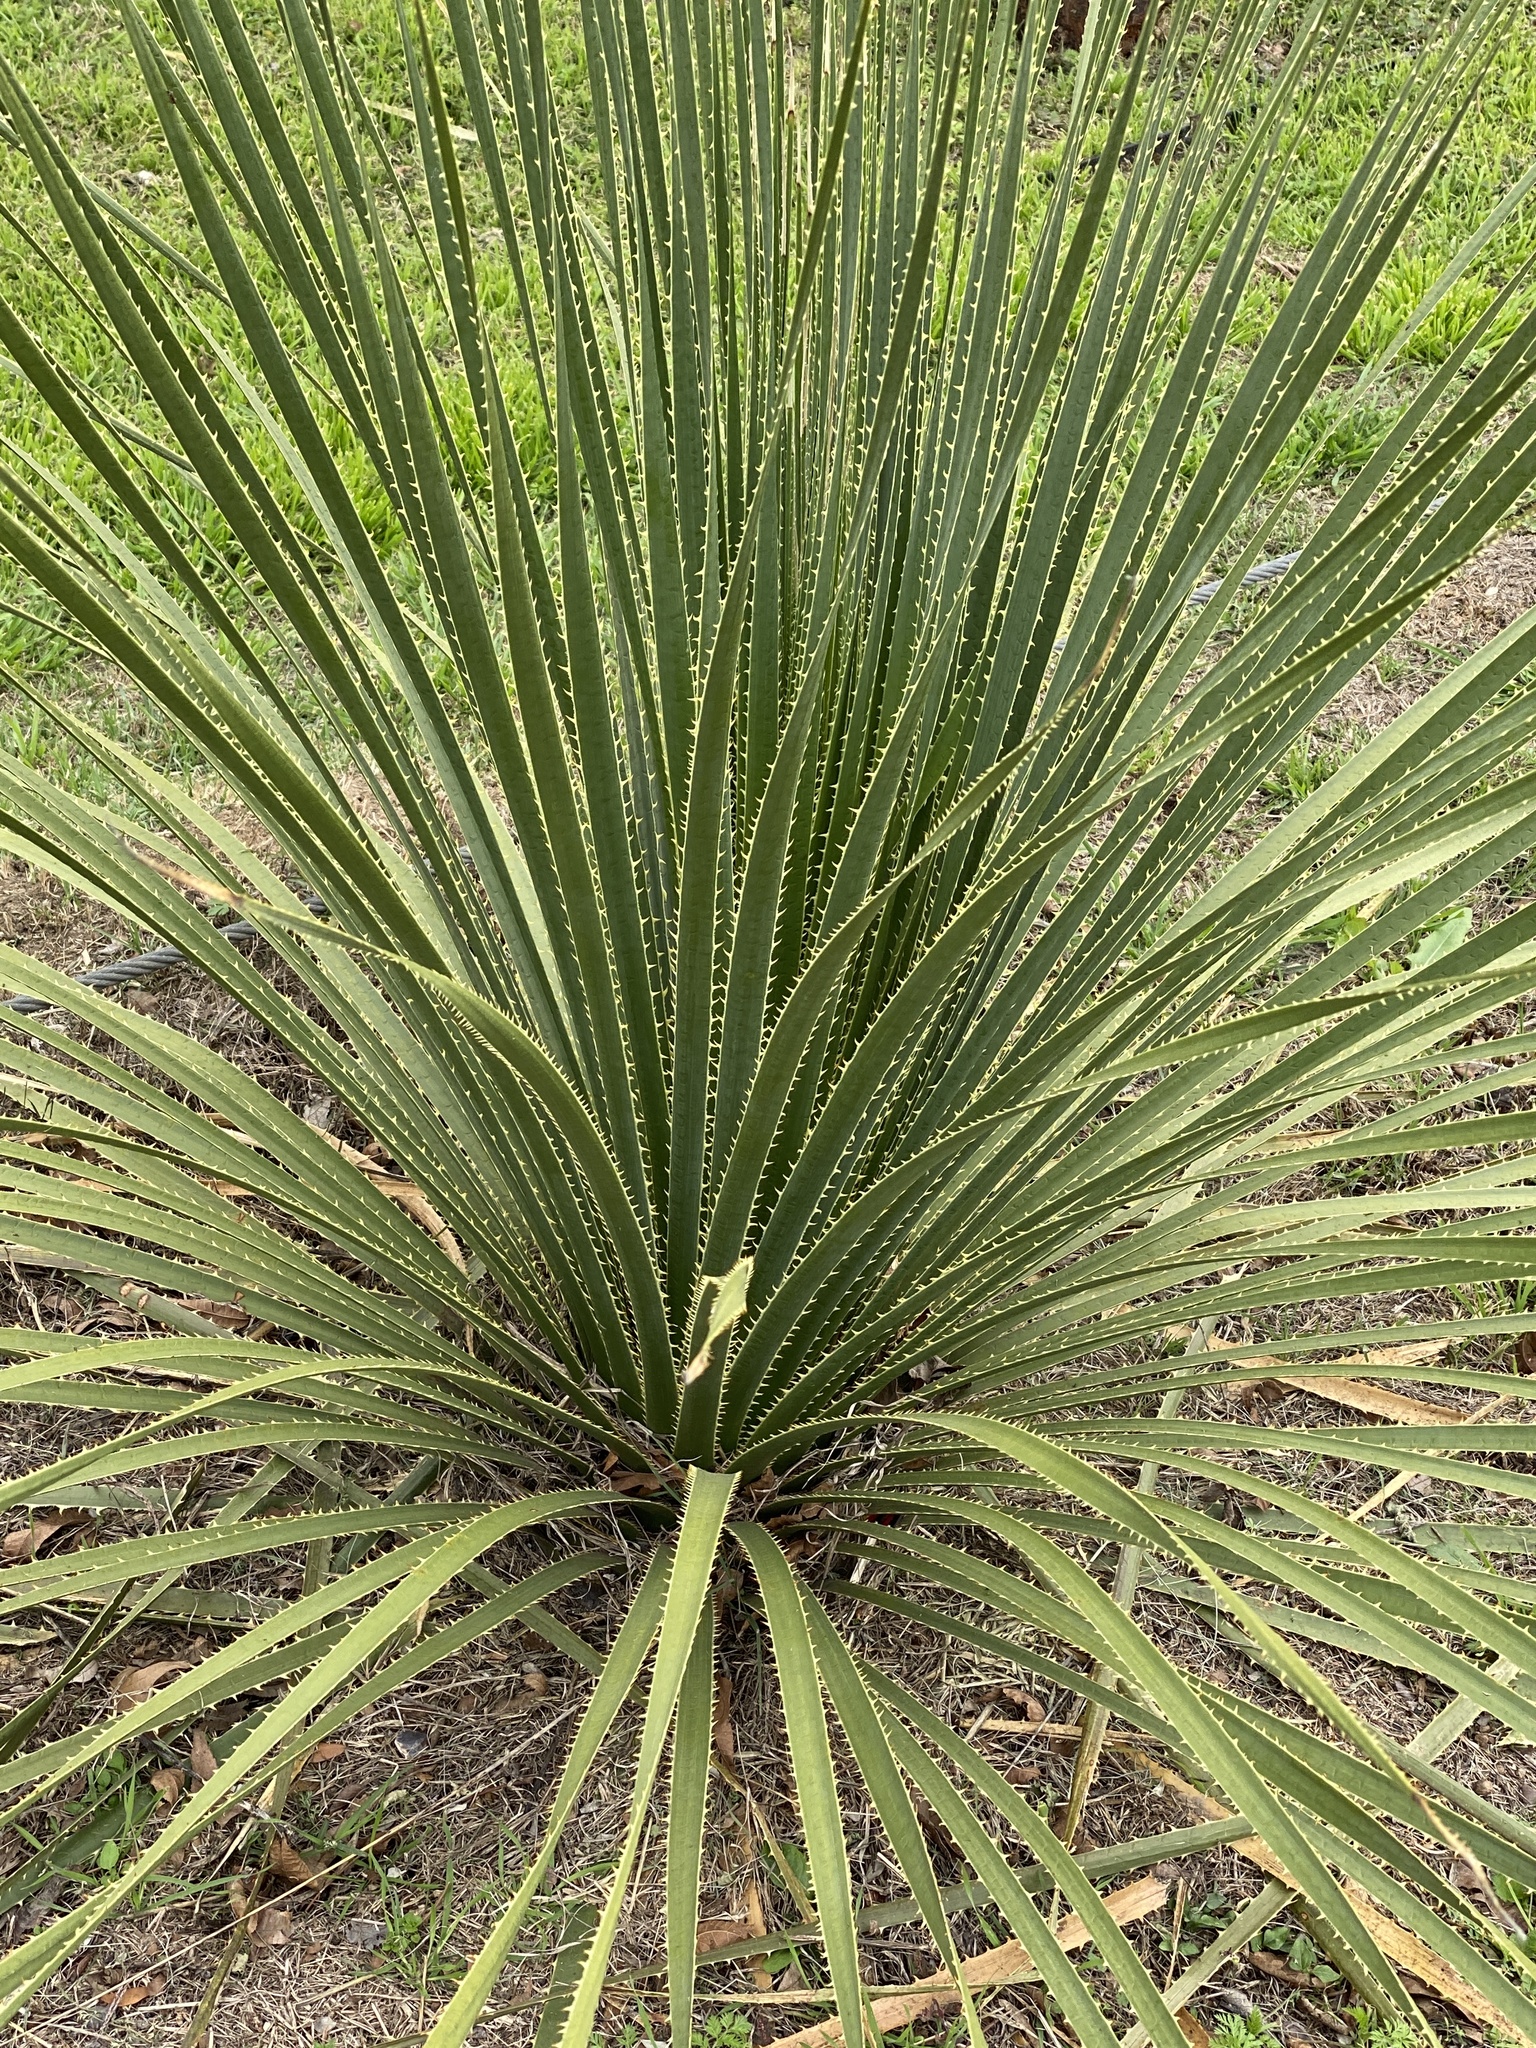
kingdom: Plantae
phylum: Tracheophyta
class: Liliopsida
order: Asparagales
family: Asparagaceae
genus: Dasylirion
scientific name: Dasylirion texanum
